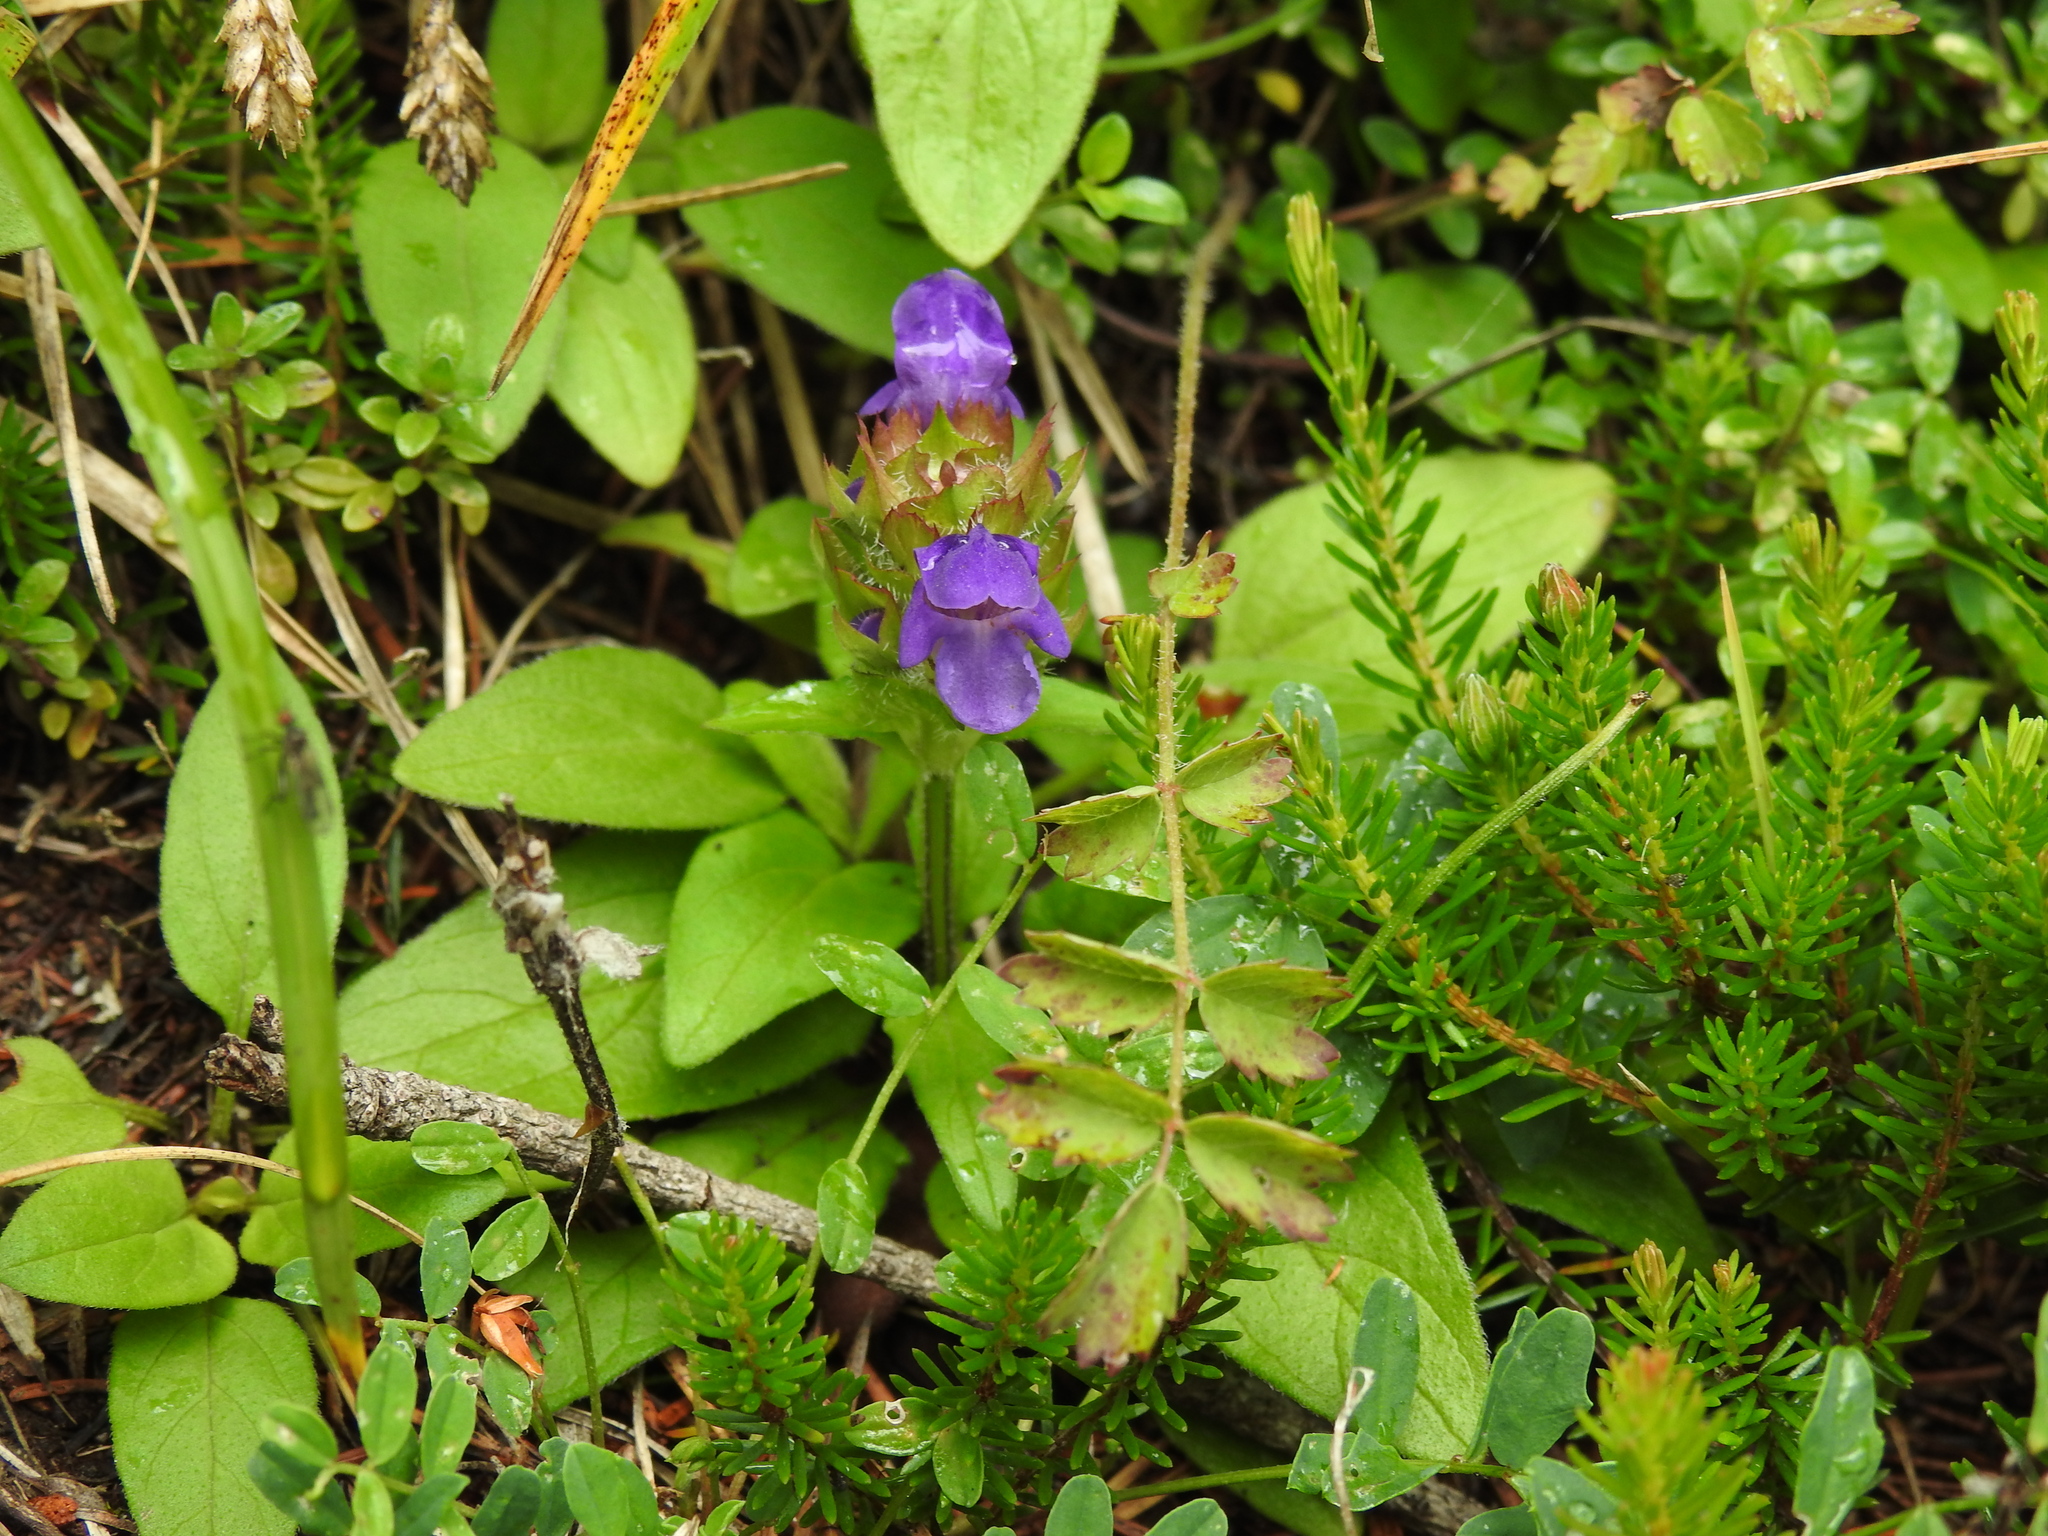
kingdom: Plantae
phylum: Tracheophyta
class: Magnoliopsida
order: Lamiales
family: Lamiaceae
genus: Prunella
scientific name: Prunella grandiflora
